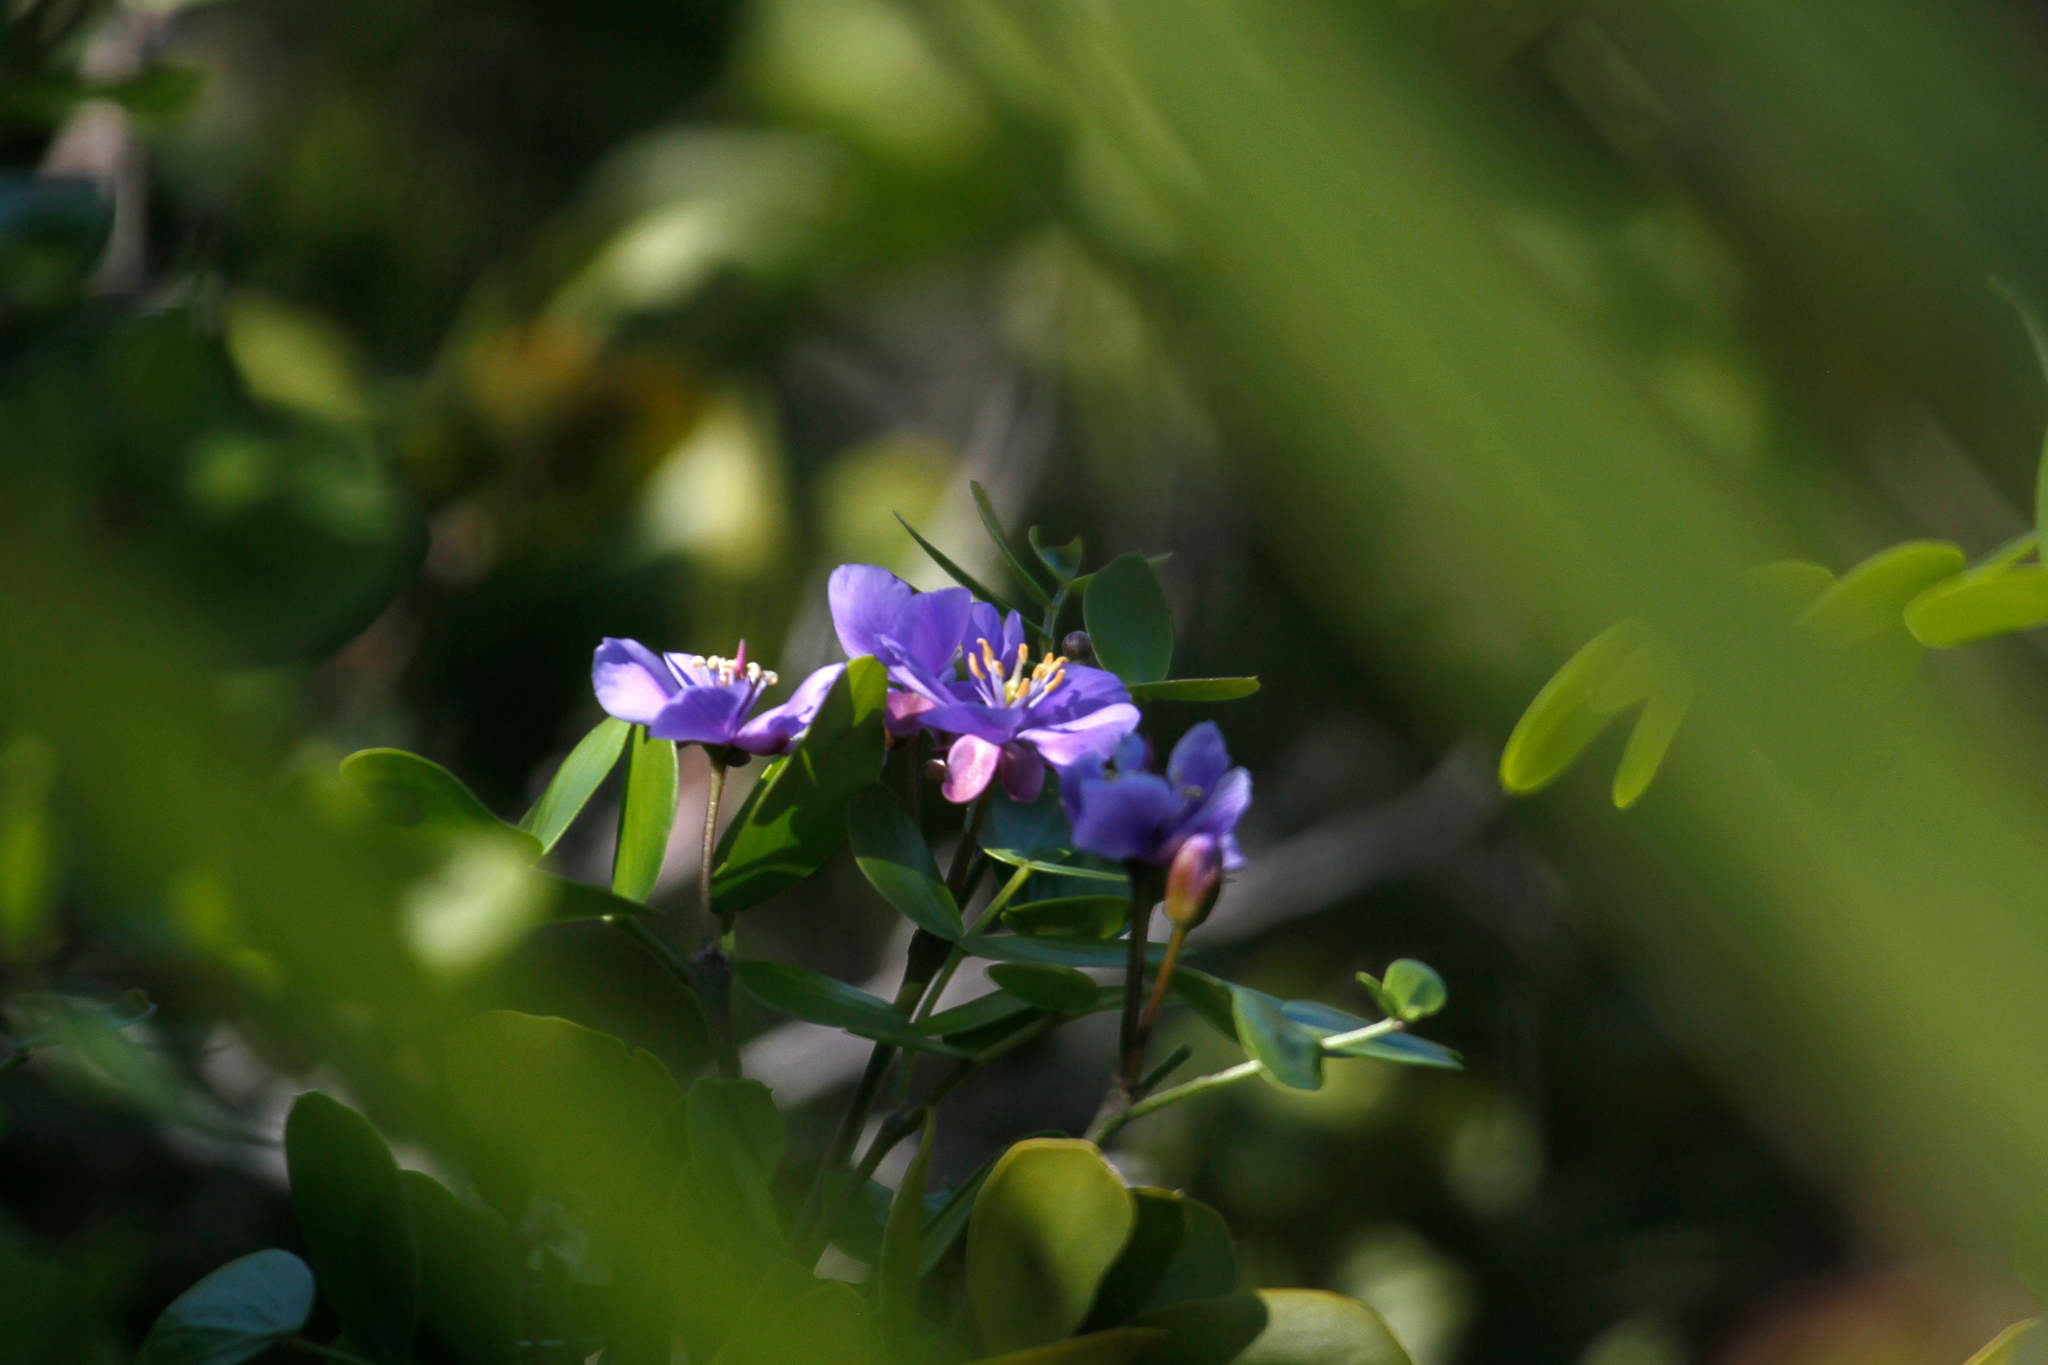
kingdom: Plantae
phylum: Tracheophyta
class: Magnoliopsida
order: Zygophyllales
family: Zygophyllaceae
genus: Guaiacum
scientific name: Guaiacum sanctum
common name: Holywood
